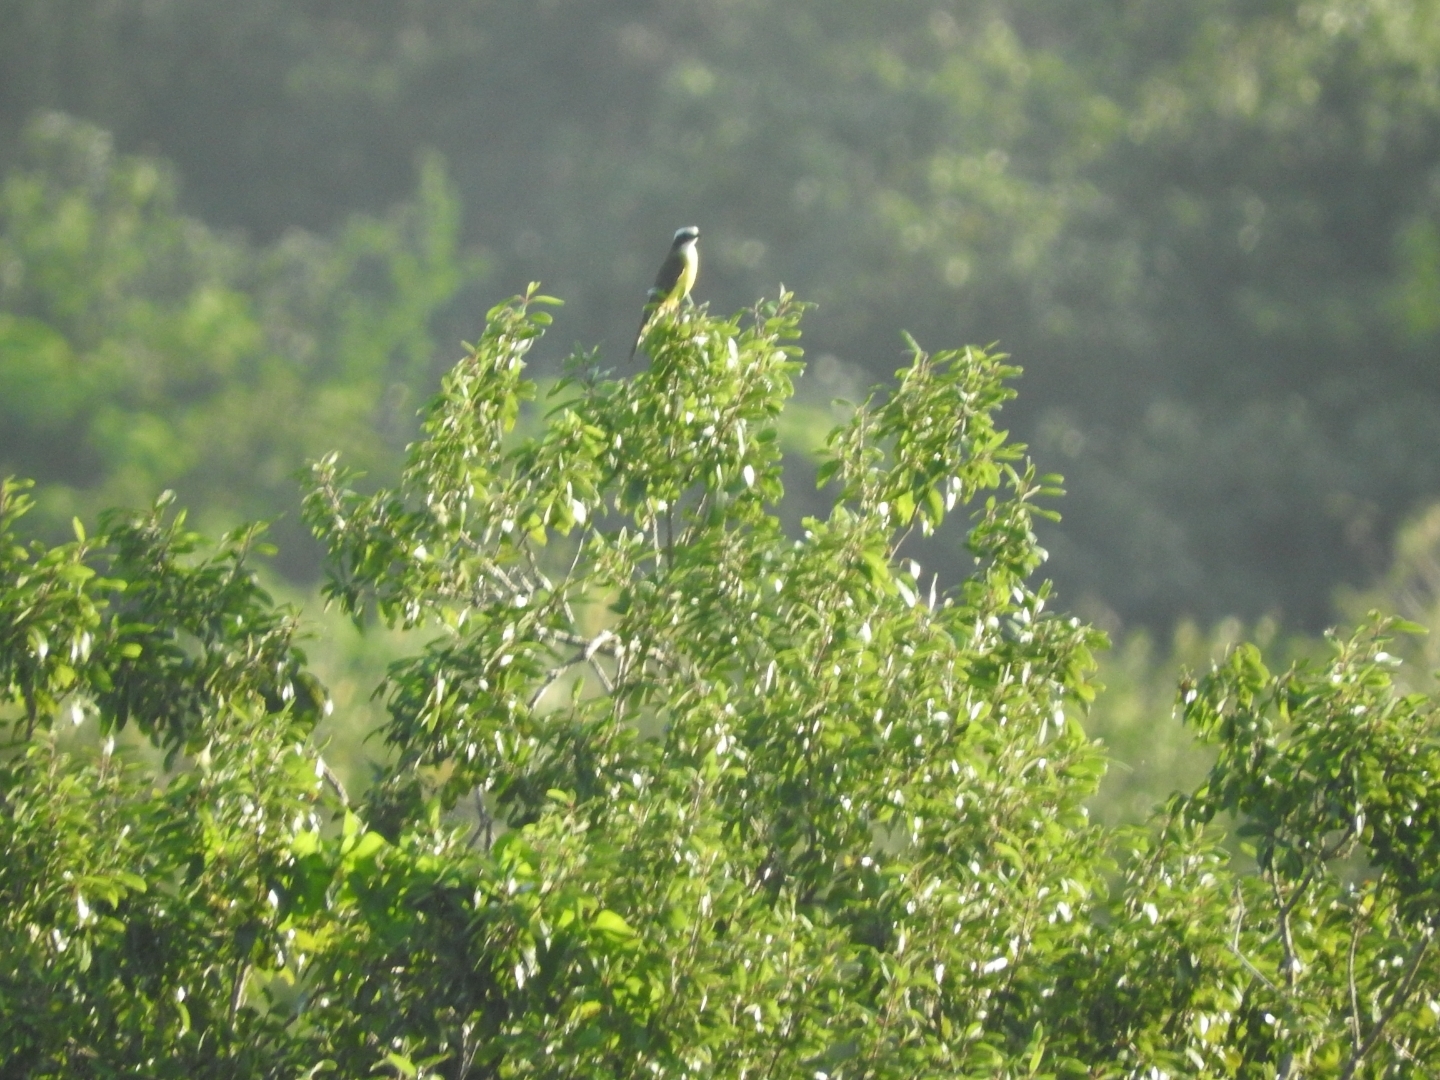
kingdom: Animalia
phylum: Chordata
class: Aves
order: Passeriformes
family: Tyrannidae
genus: Myiozetetes
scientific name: Myiozetetes similis
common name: Social flycatcher
